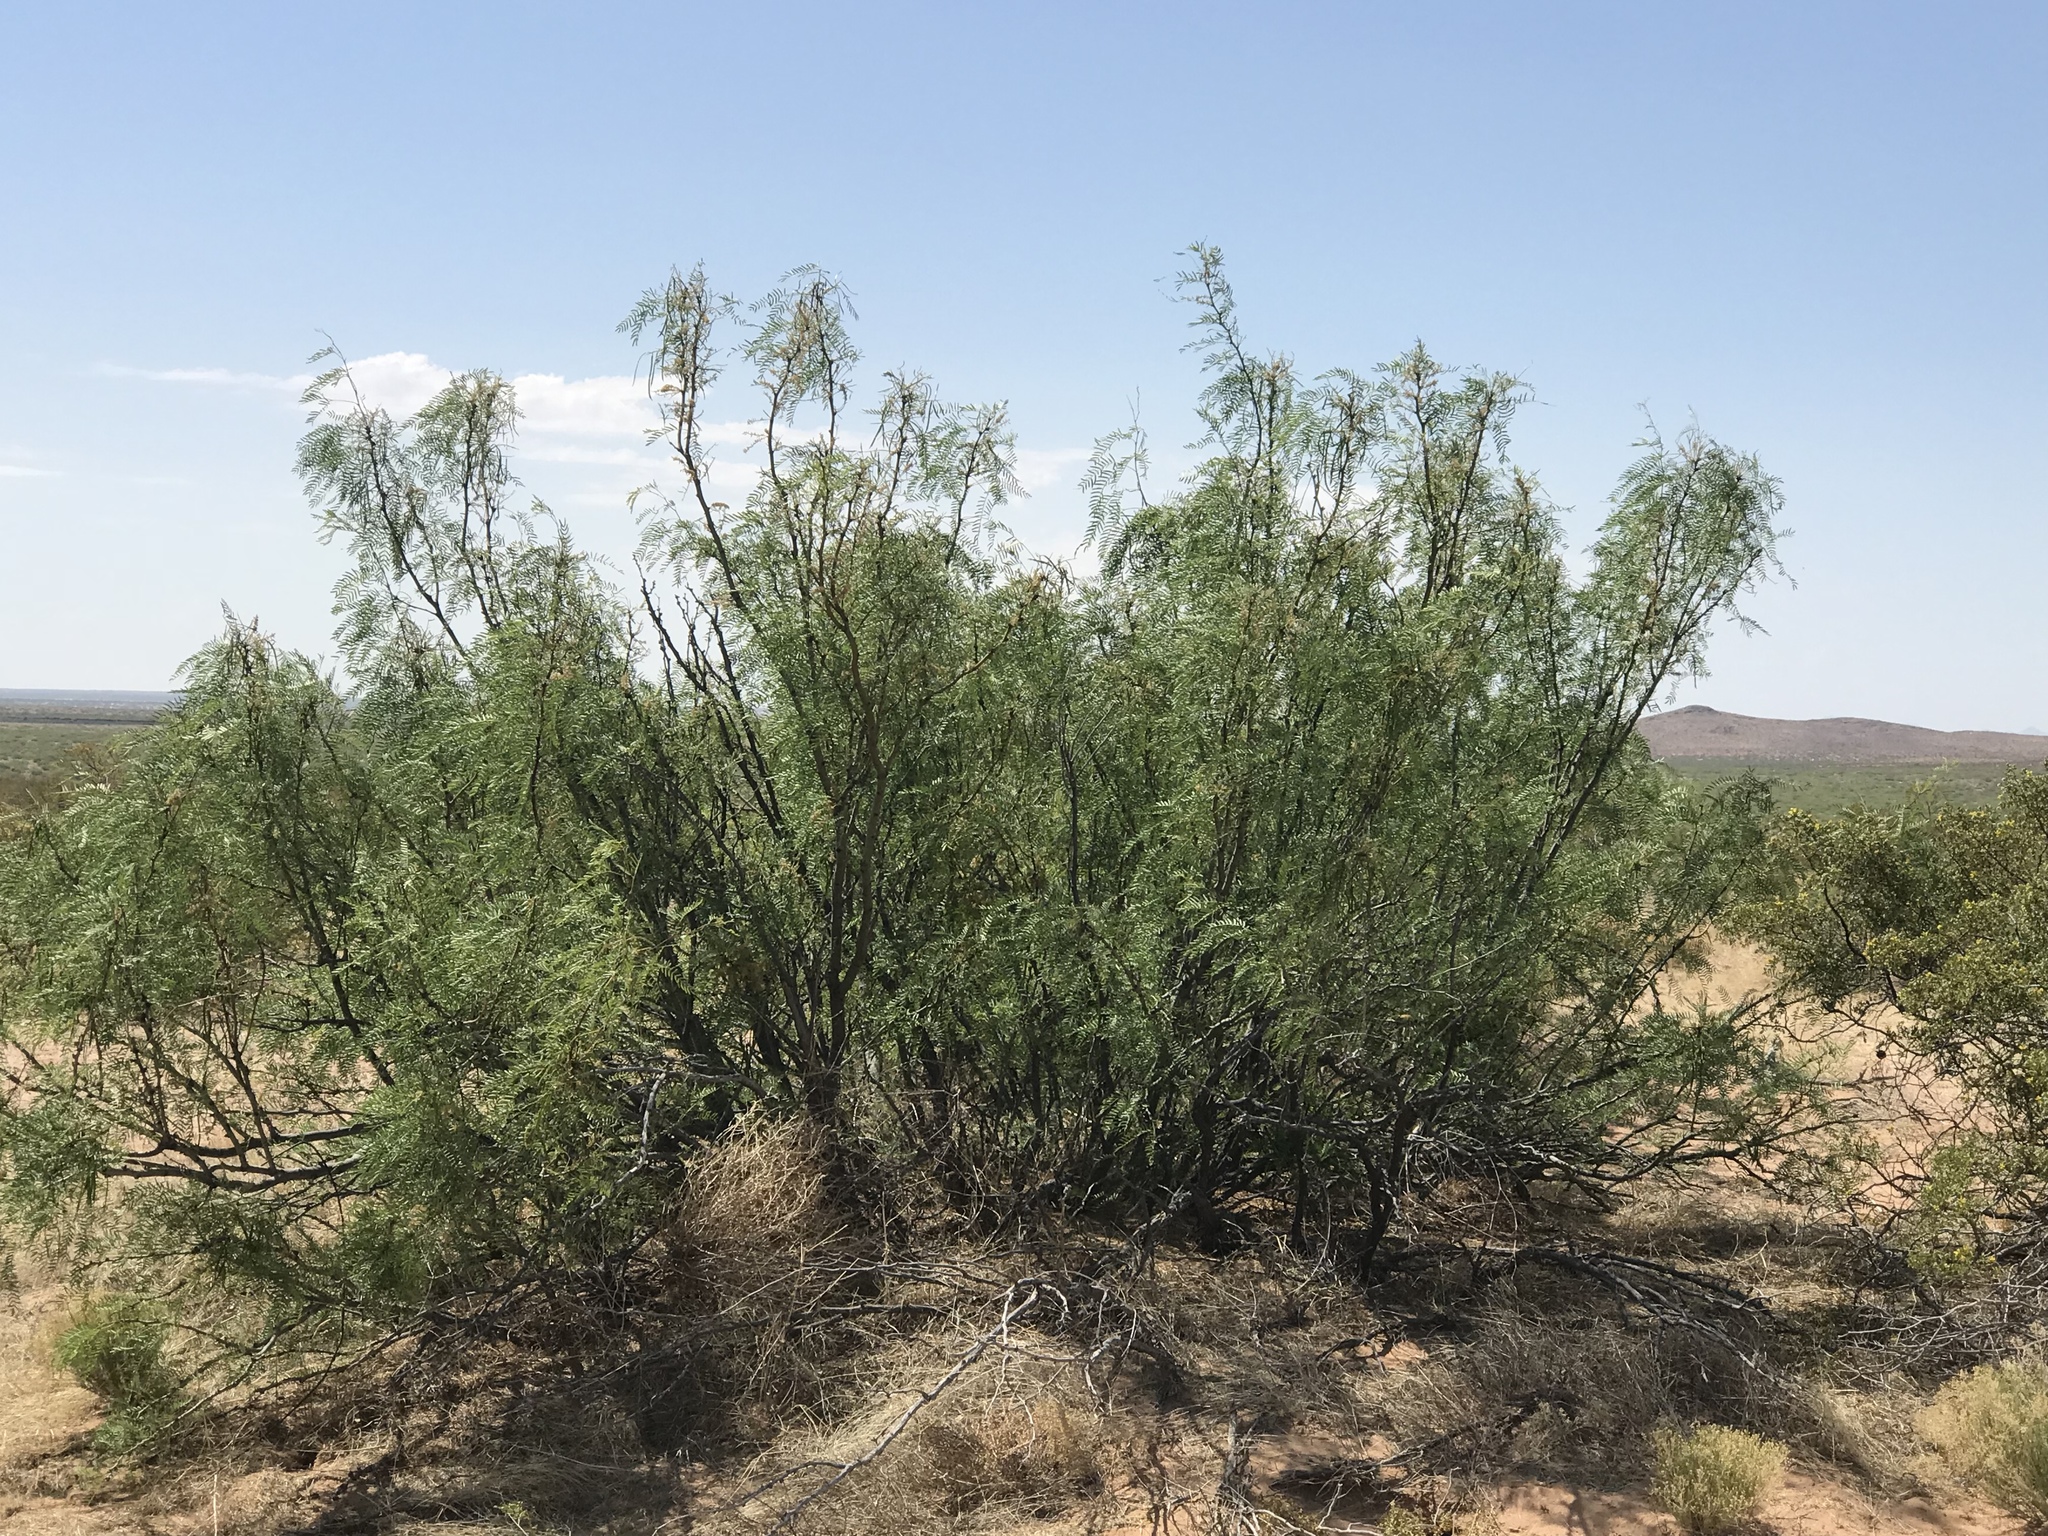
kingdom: Plantae
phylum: Tracheophyta
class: Magnoliopsida
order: Fabales
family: Fabaceae
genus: Prosopis
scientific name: Prosopis glandulosa
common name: Honey mesquite
